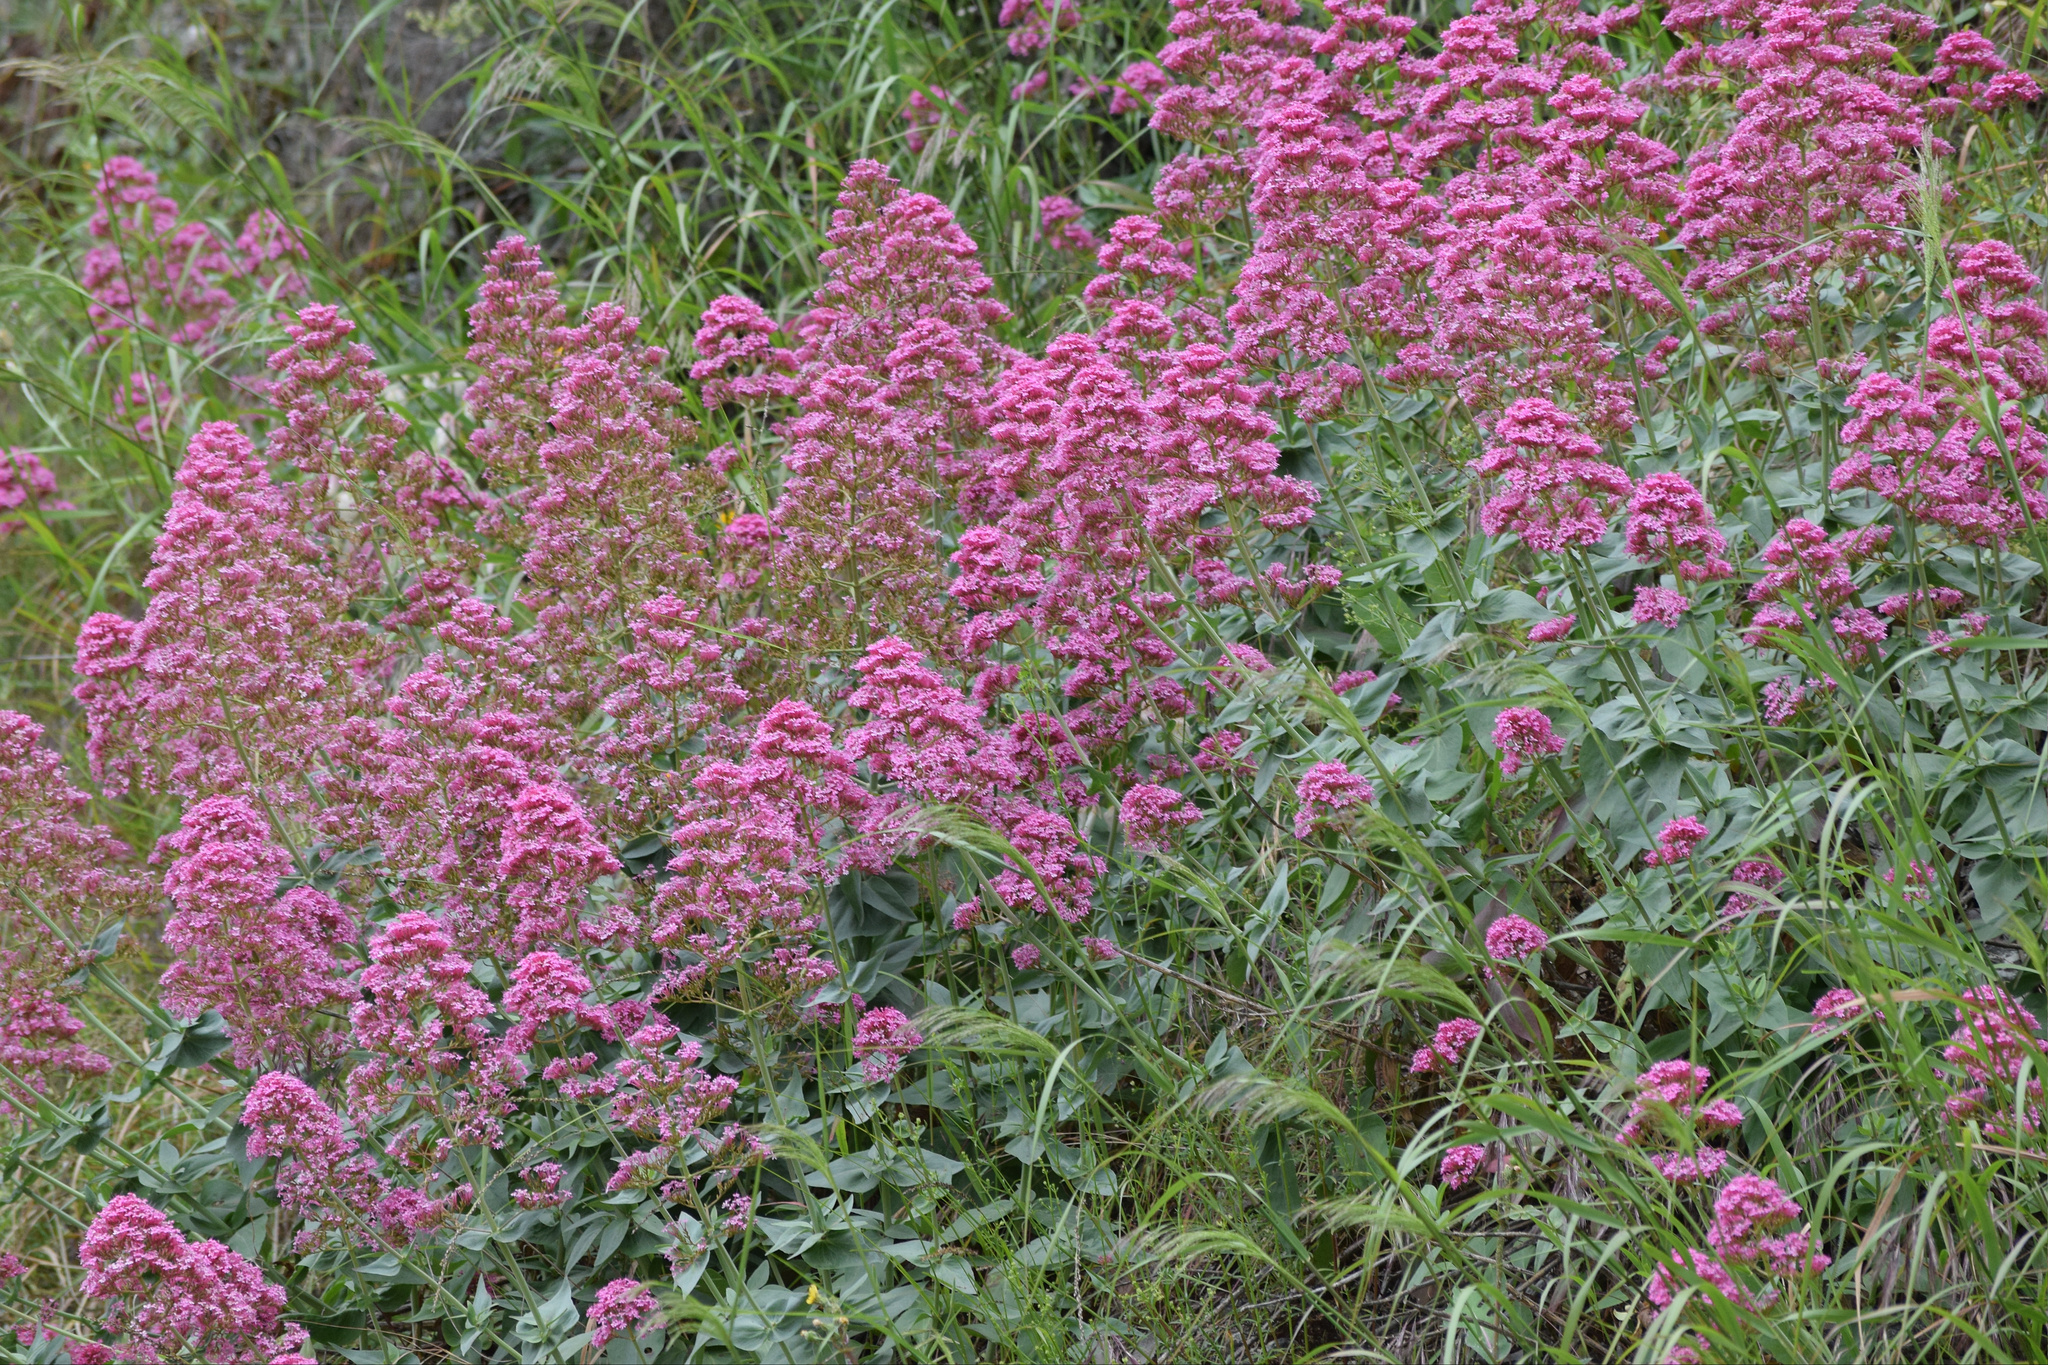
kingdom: Plantae
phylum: Tracheophyta
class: Magnoliopsida
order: Dipsacales
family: Caprifoliaceae
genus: Centranthus
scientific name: Centranthus ruber
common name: Red valerian
